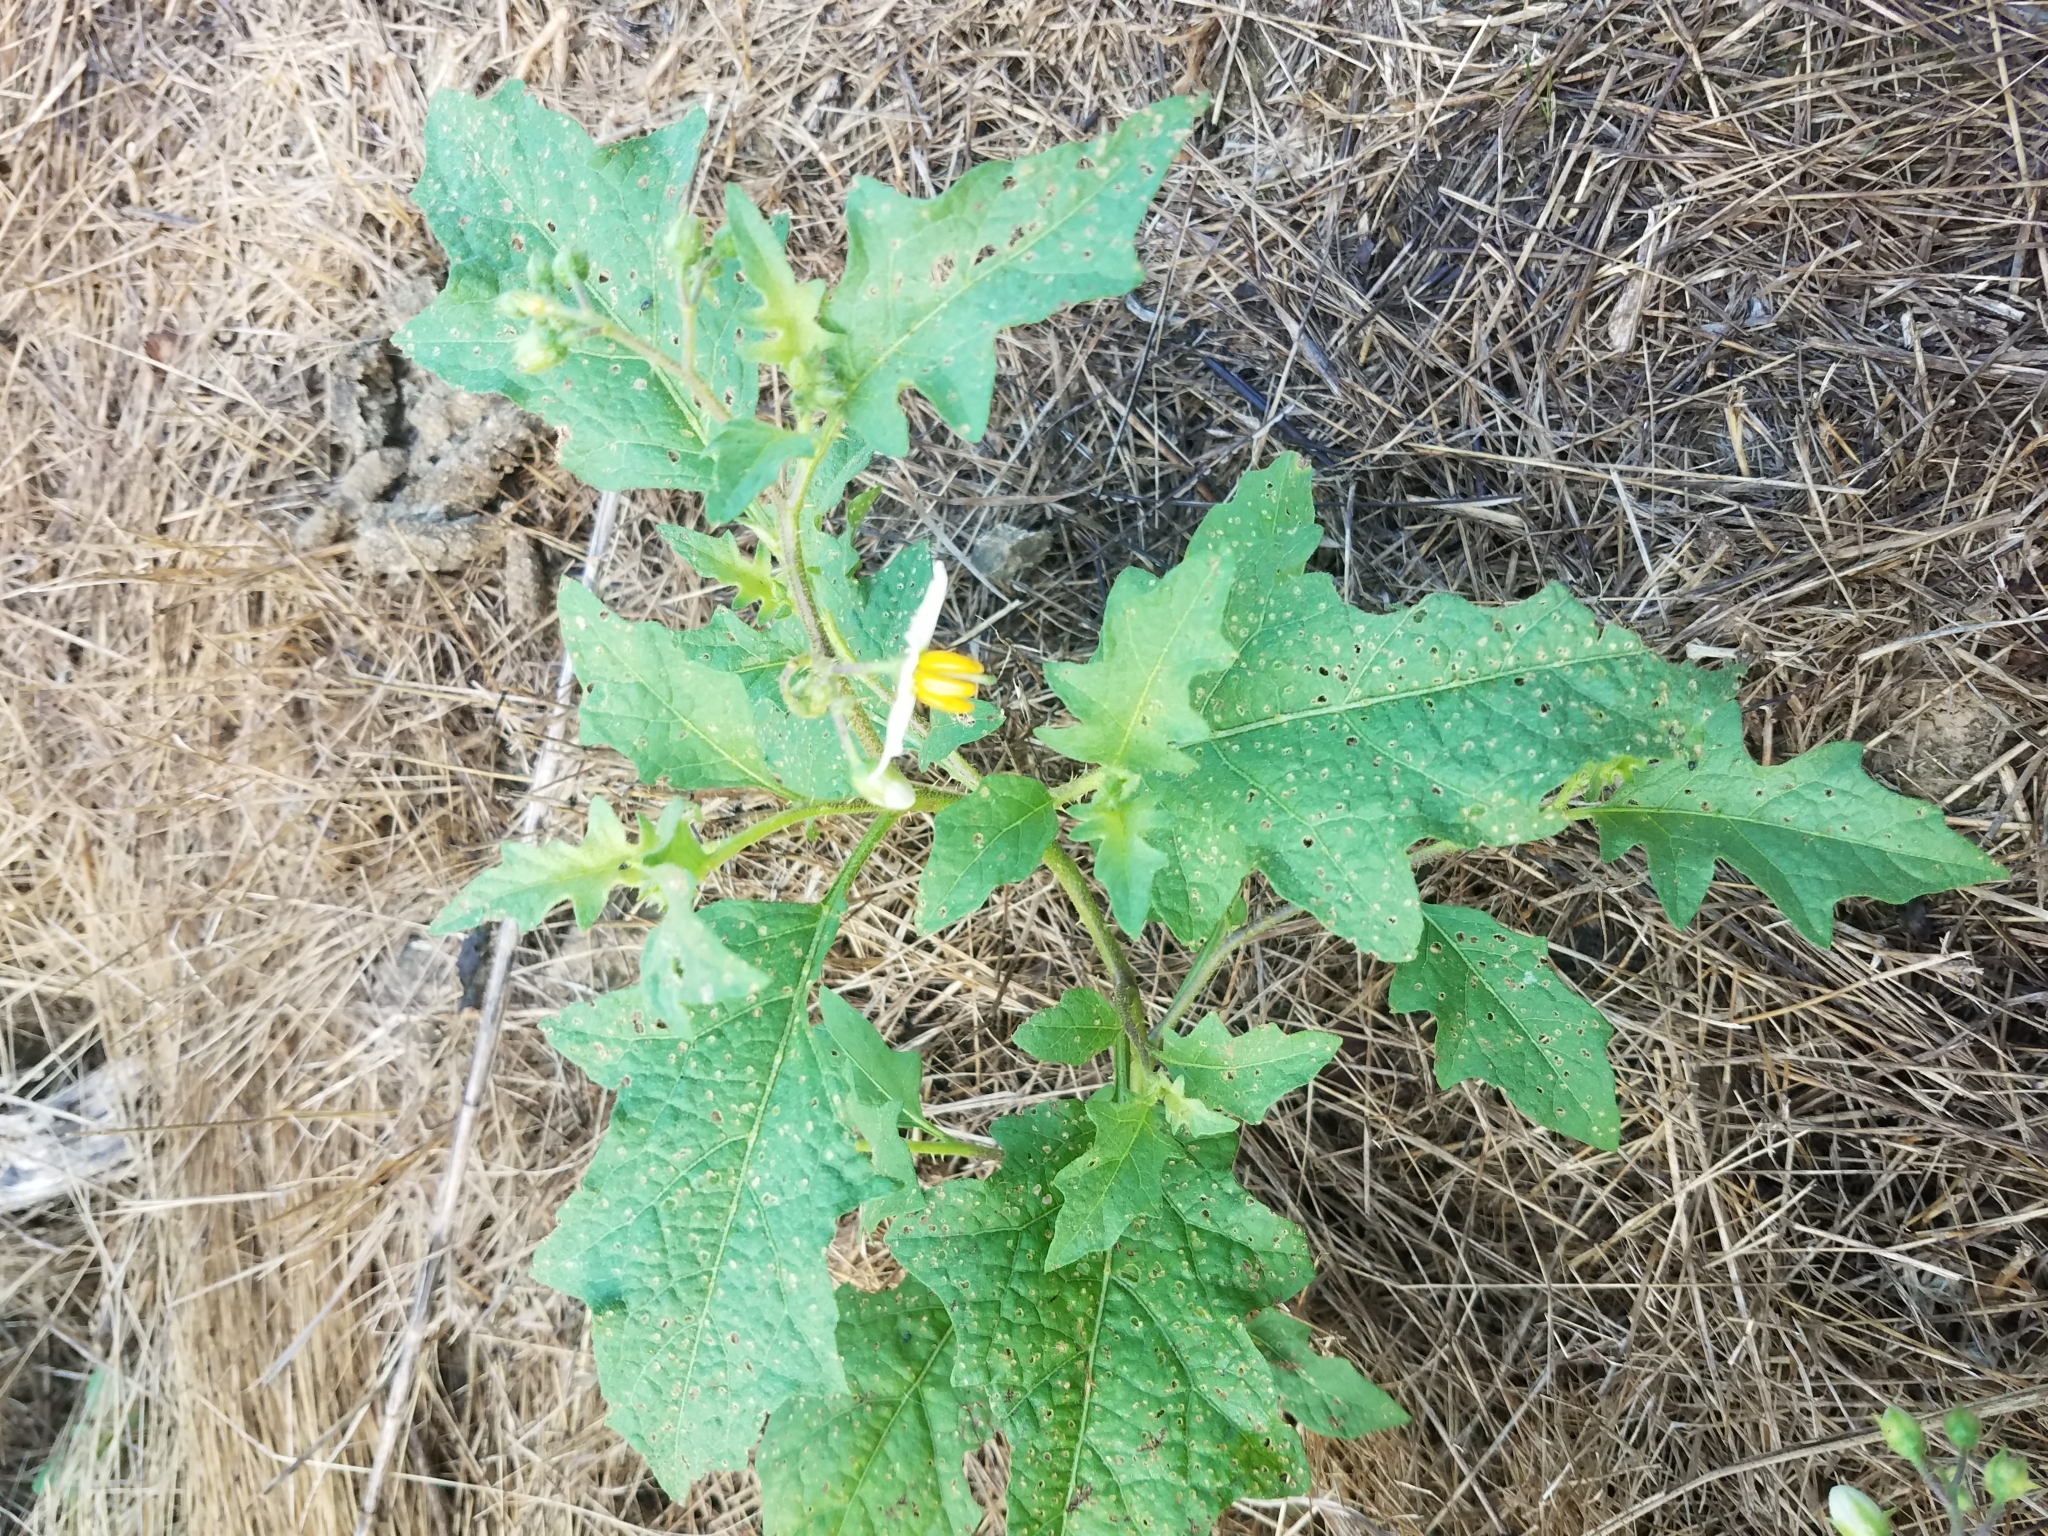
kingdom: Plantae
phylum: Tracheophyta
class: Magnoliopsida
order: Solanales
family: Solanaceae
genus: Solanum
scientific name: Solanum carolinense
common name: Horse-nettle
